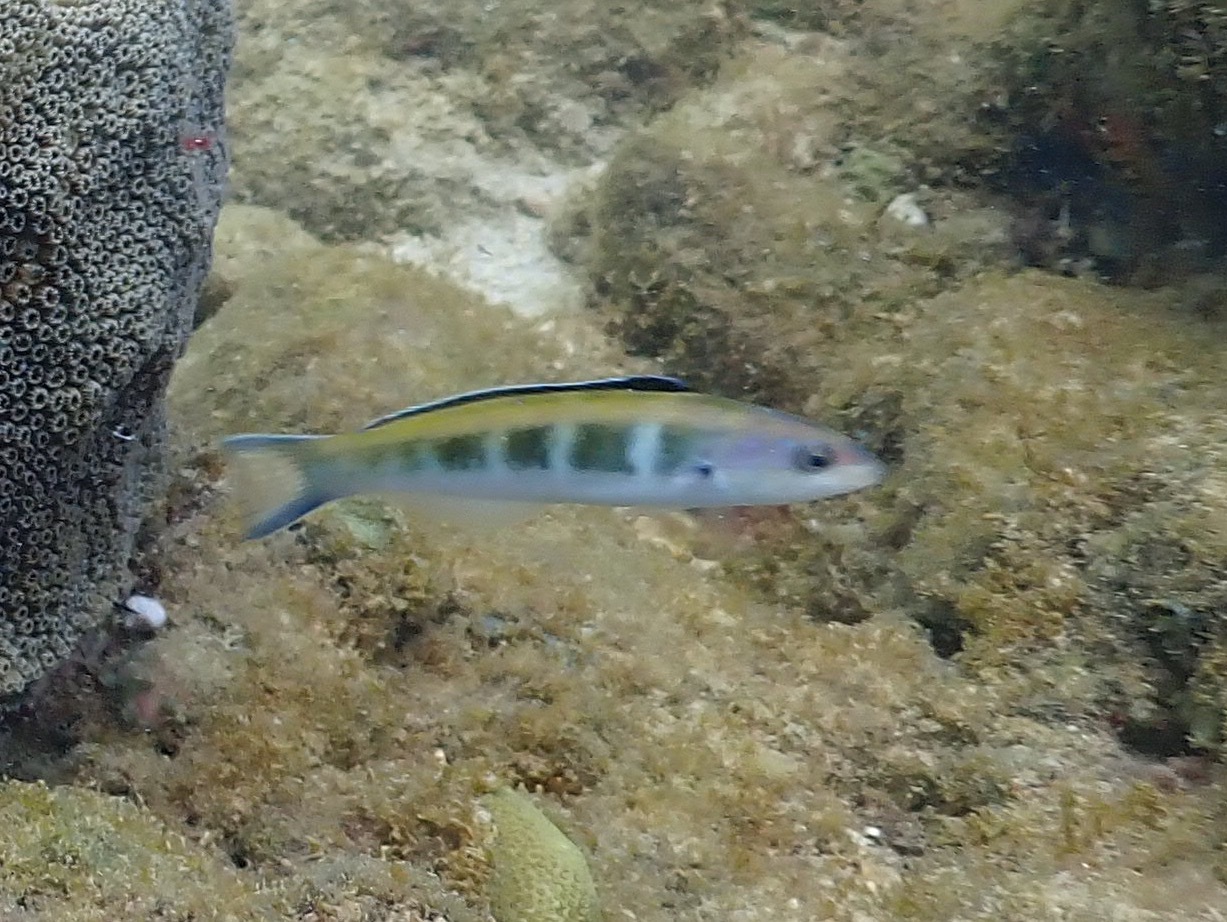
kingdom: Animalia
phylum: Chordata
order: Perciformes
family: Labridae
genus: Thalassoma
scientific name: Thalassoma bifasciatum
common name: Bluehead wrasse
